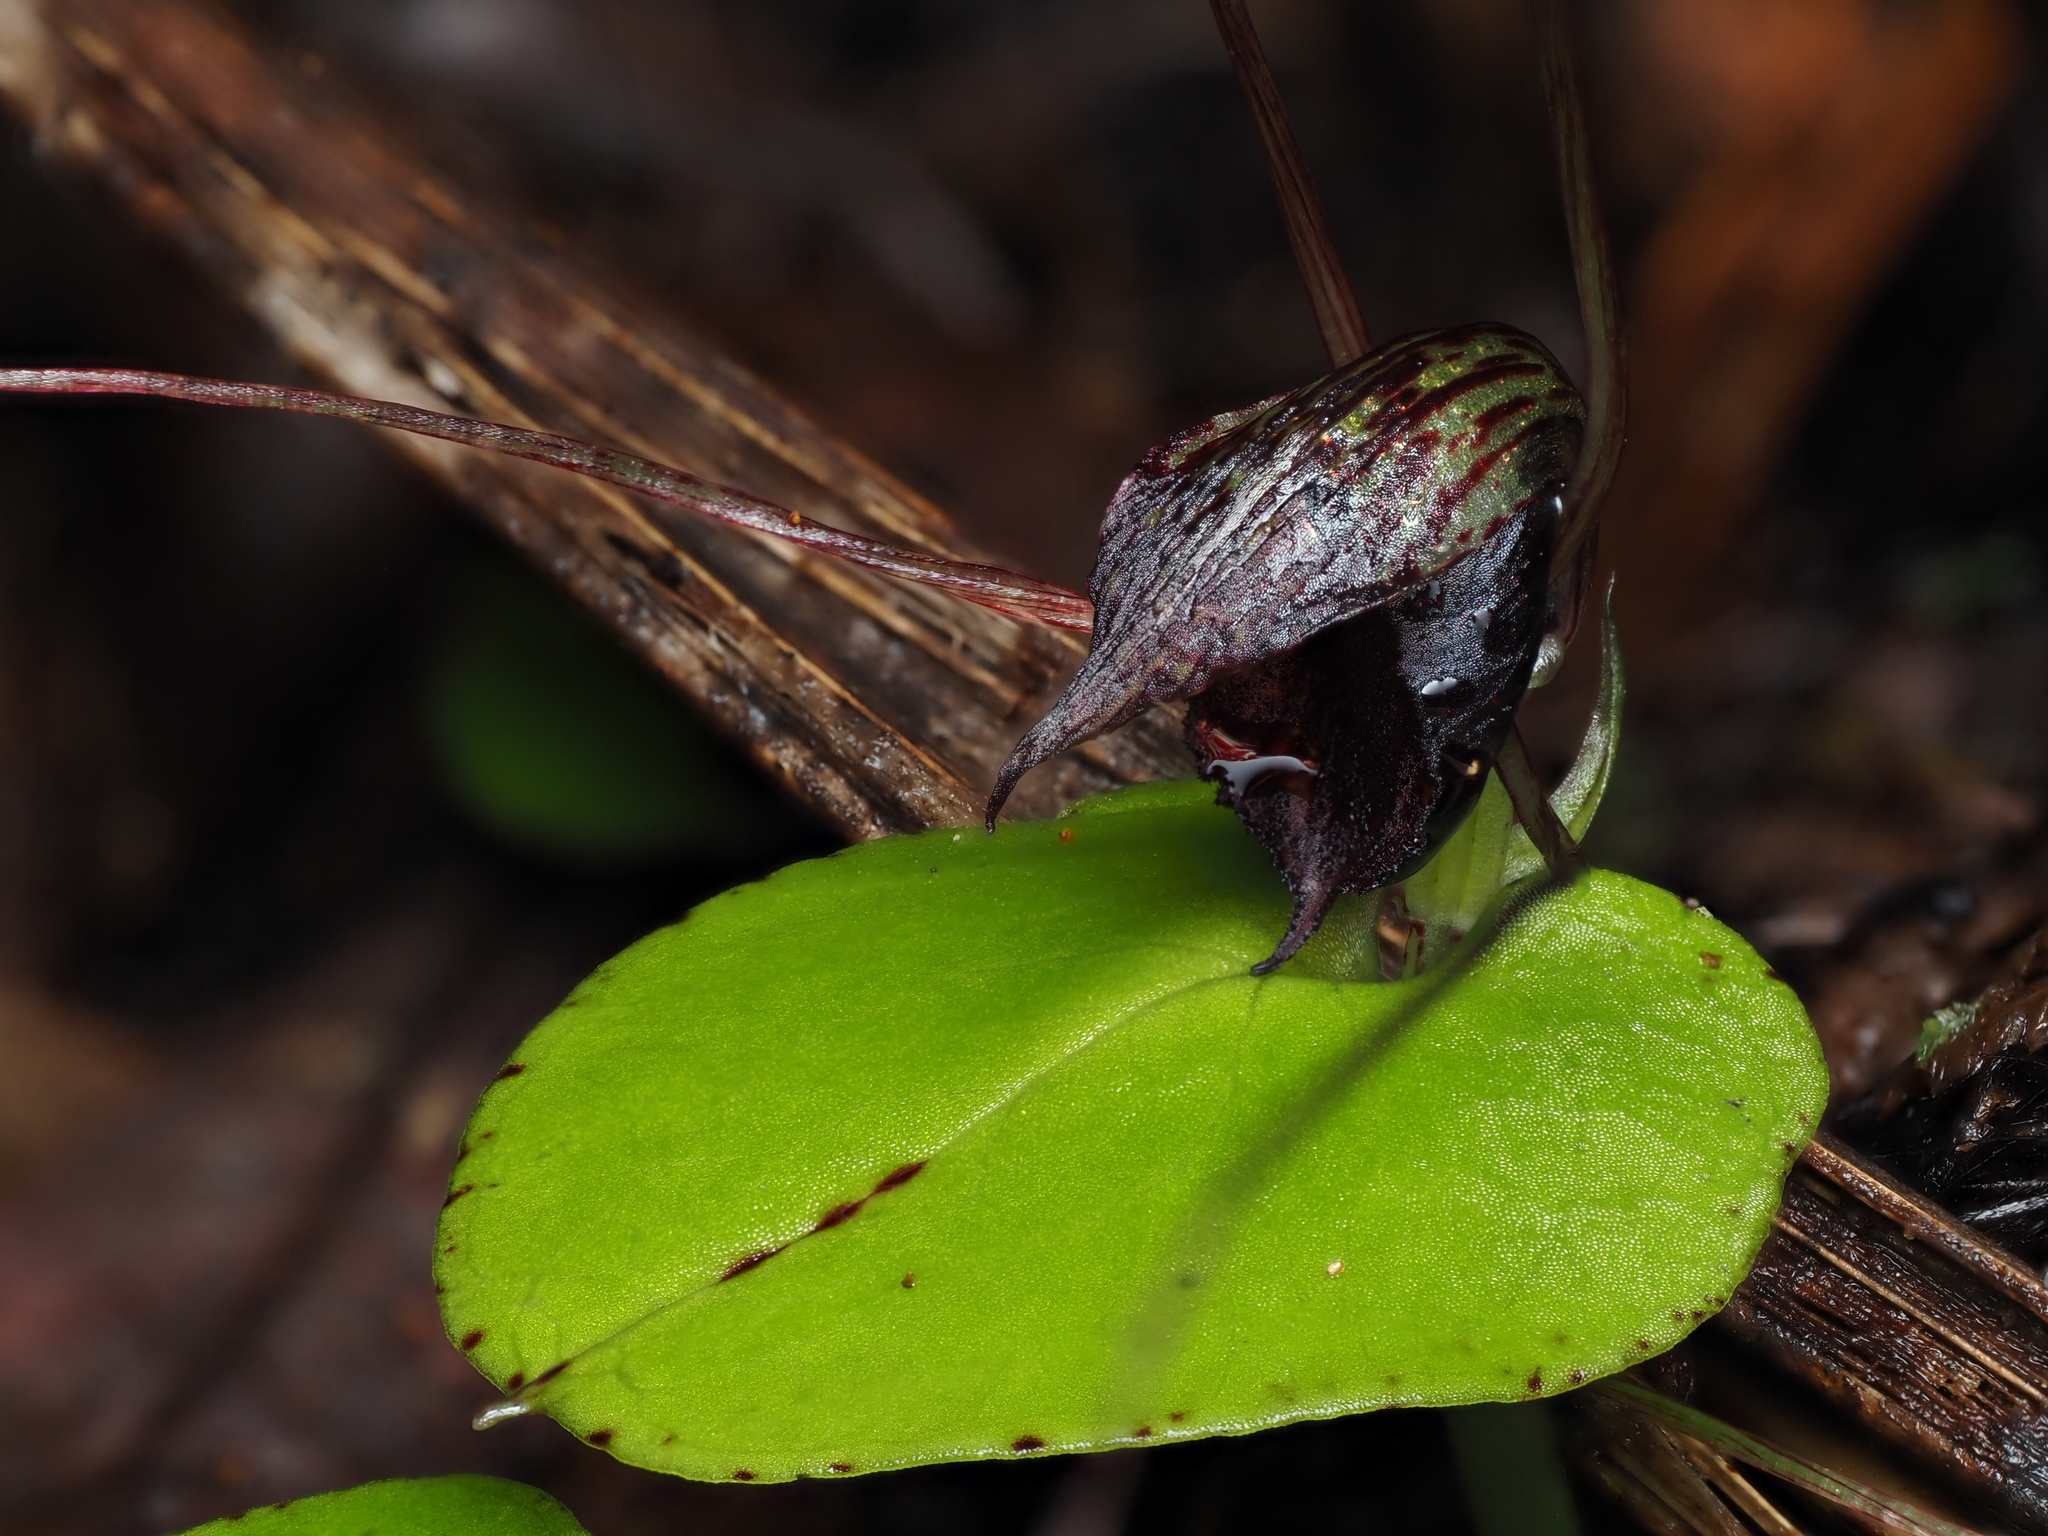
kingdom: Plantae
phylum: Tracheophyta
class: Liliopsida
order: Asparagales
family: Orchidaceae
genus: Corybas
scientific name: Corybas iridescens
